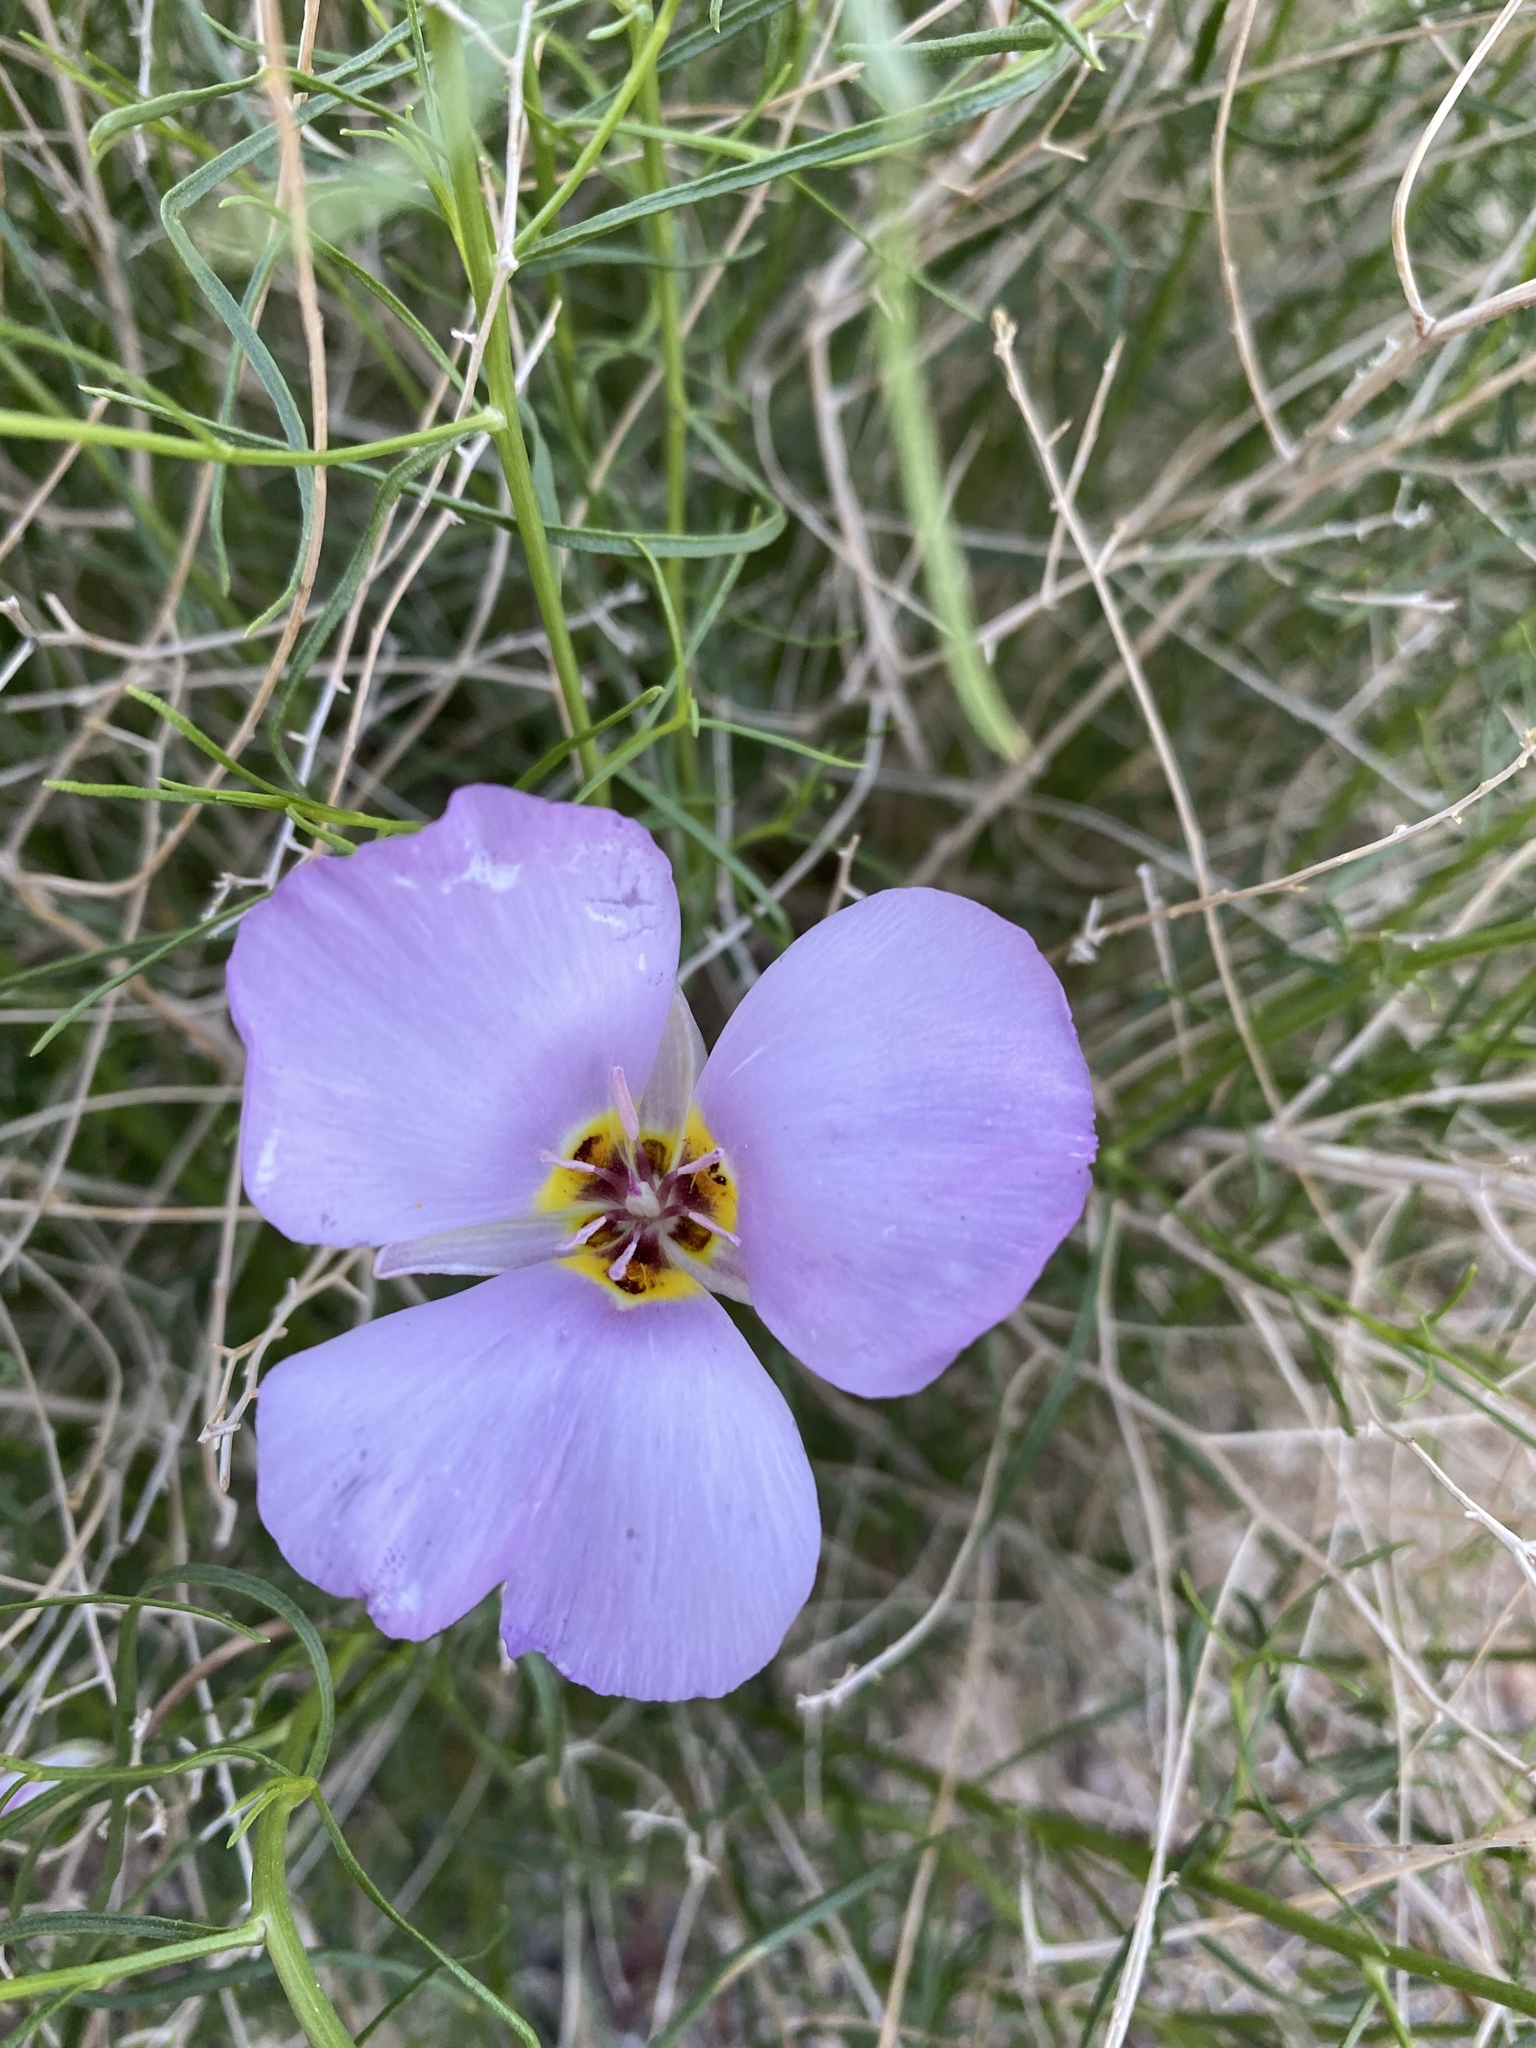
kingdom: Plantae
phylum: Tracheophyta
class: Liliopsida
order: Liliales
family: Liliaceae
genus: Calochortus
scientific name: Calochortus flexuosus
